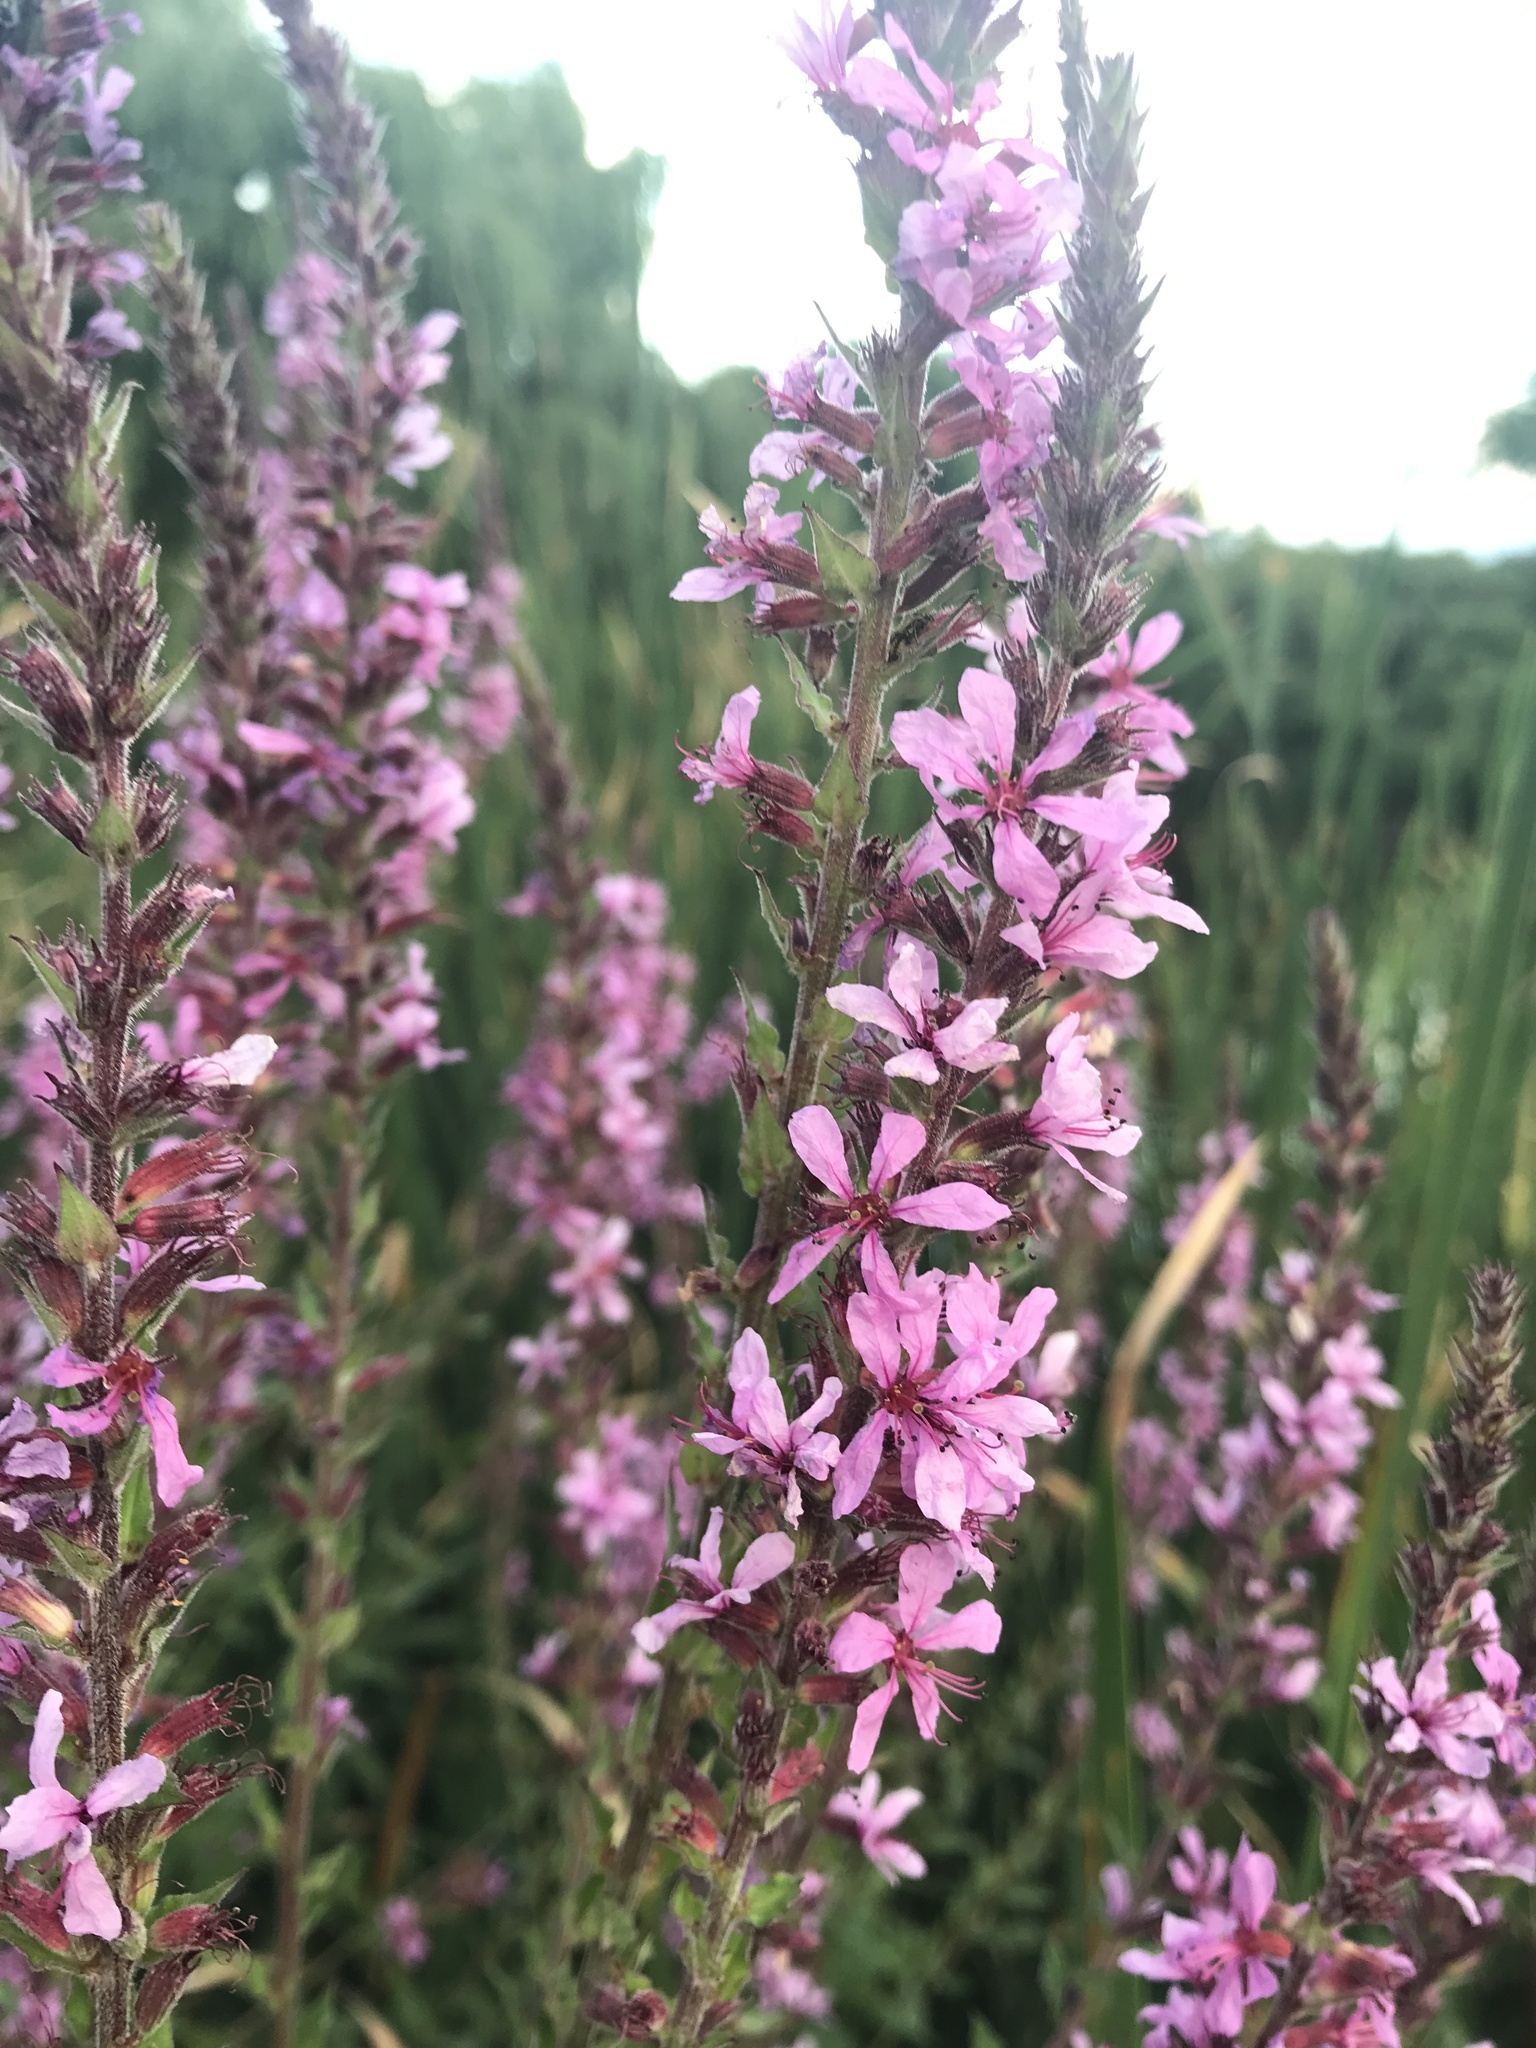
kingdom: Plantae
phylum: Tracheophyta
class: Magnoliopsida
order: Myrtales
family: Lythraceae
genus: Lythrum
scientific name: Lythrum salicaria
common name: Purple loosestrife
